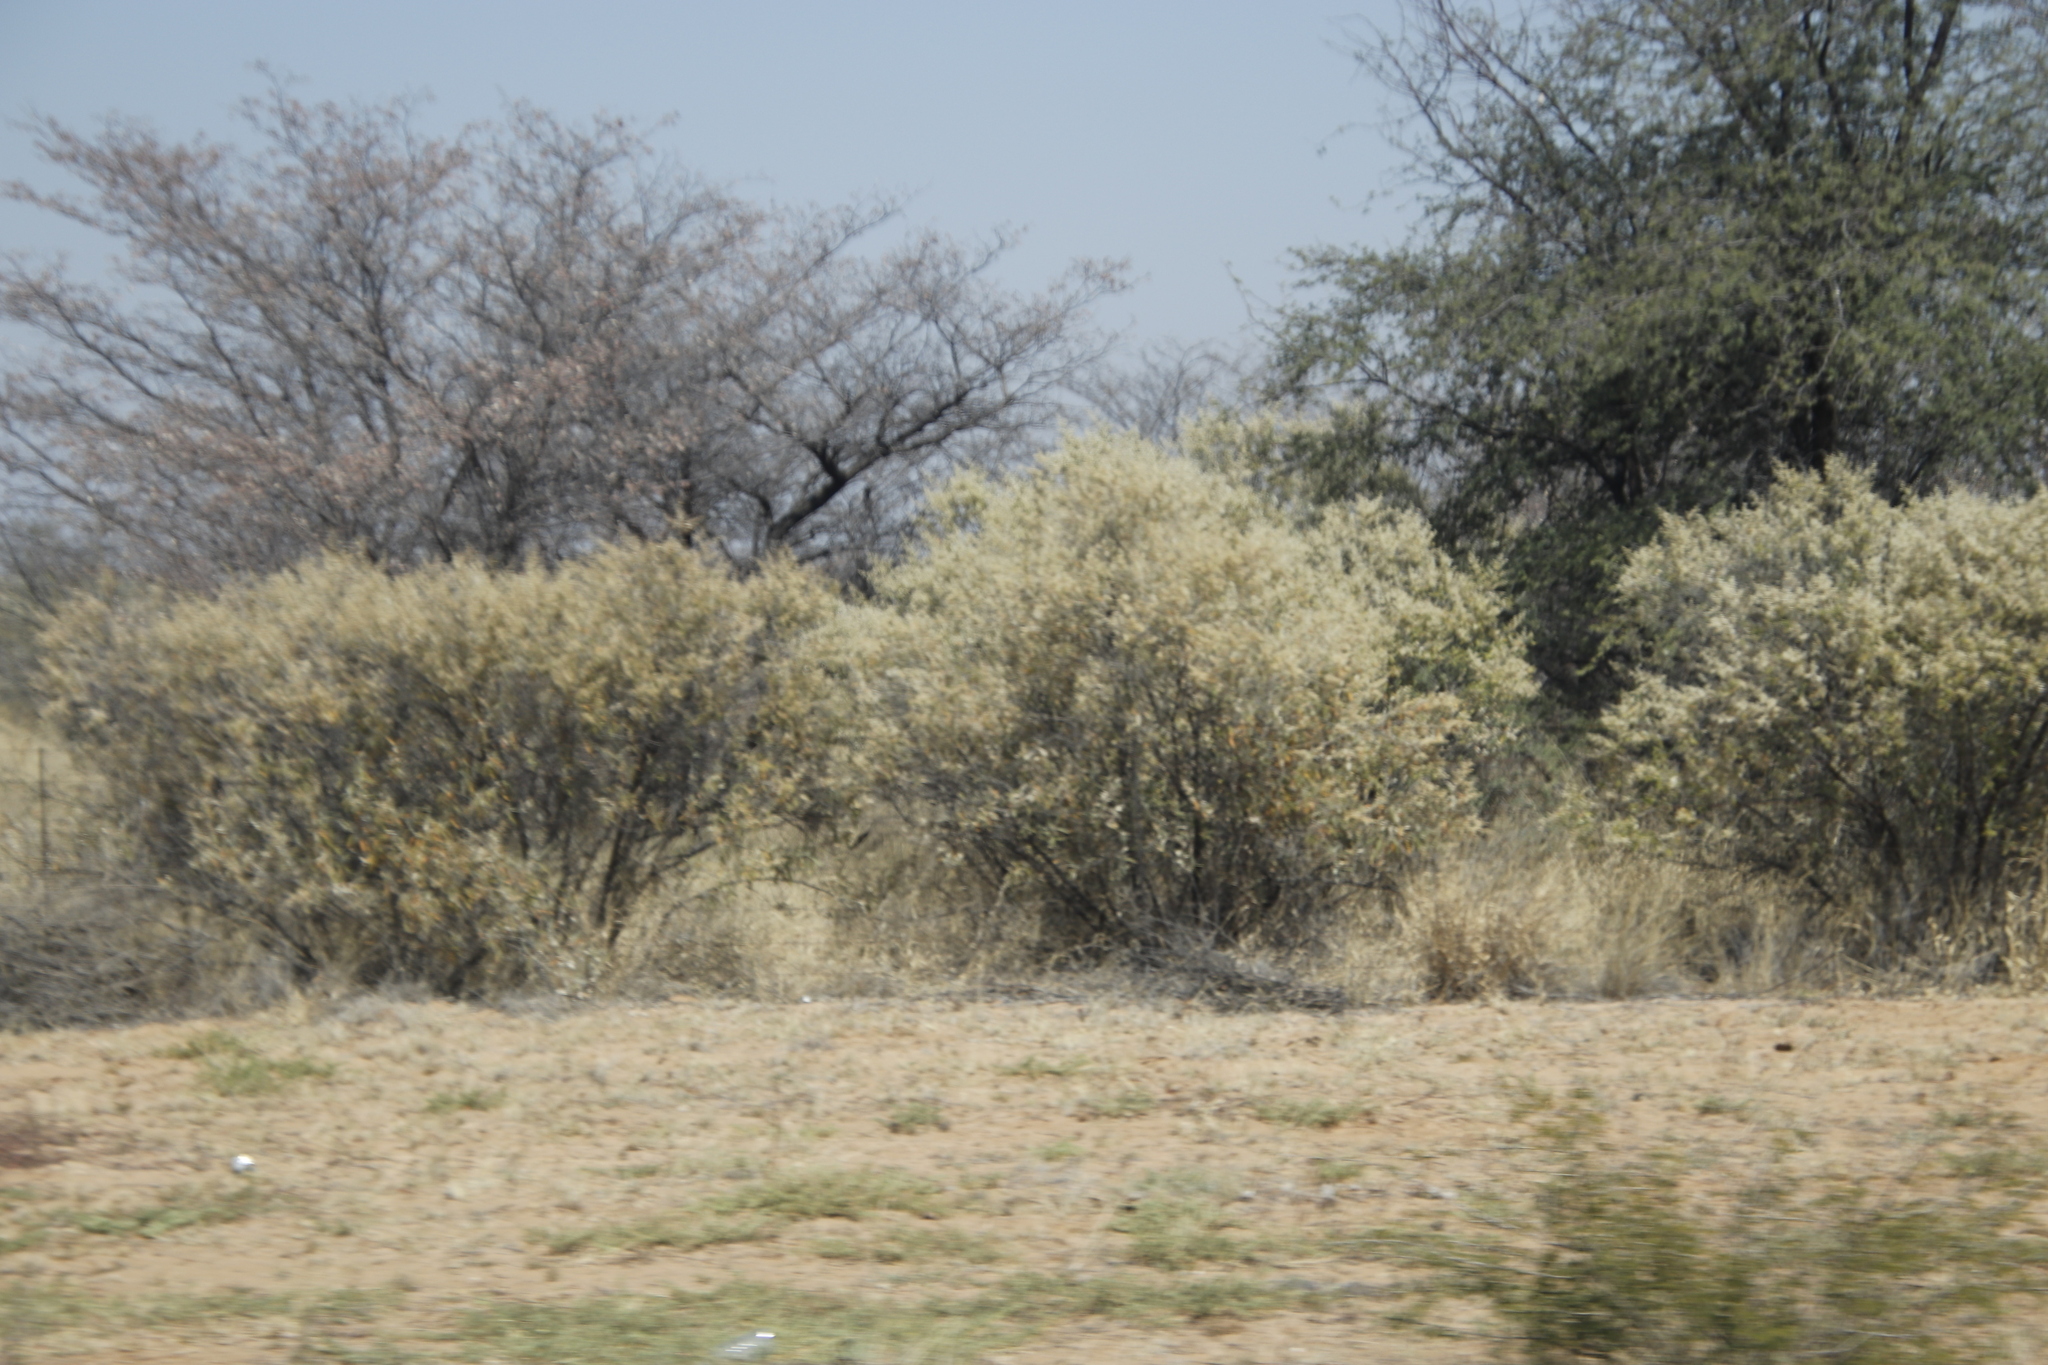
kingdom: Plantae
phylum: Tracheophyta
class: Magnoliopsida
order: Fabales
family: Fabaceae
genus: Senegalia
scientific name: Senegalia mellifera
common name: Hookthorn
